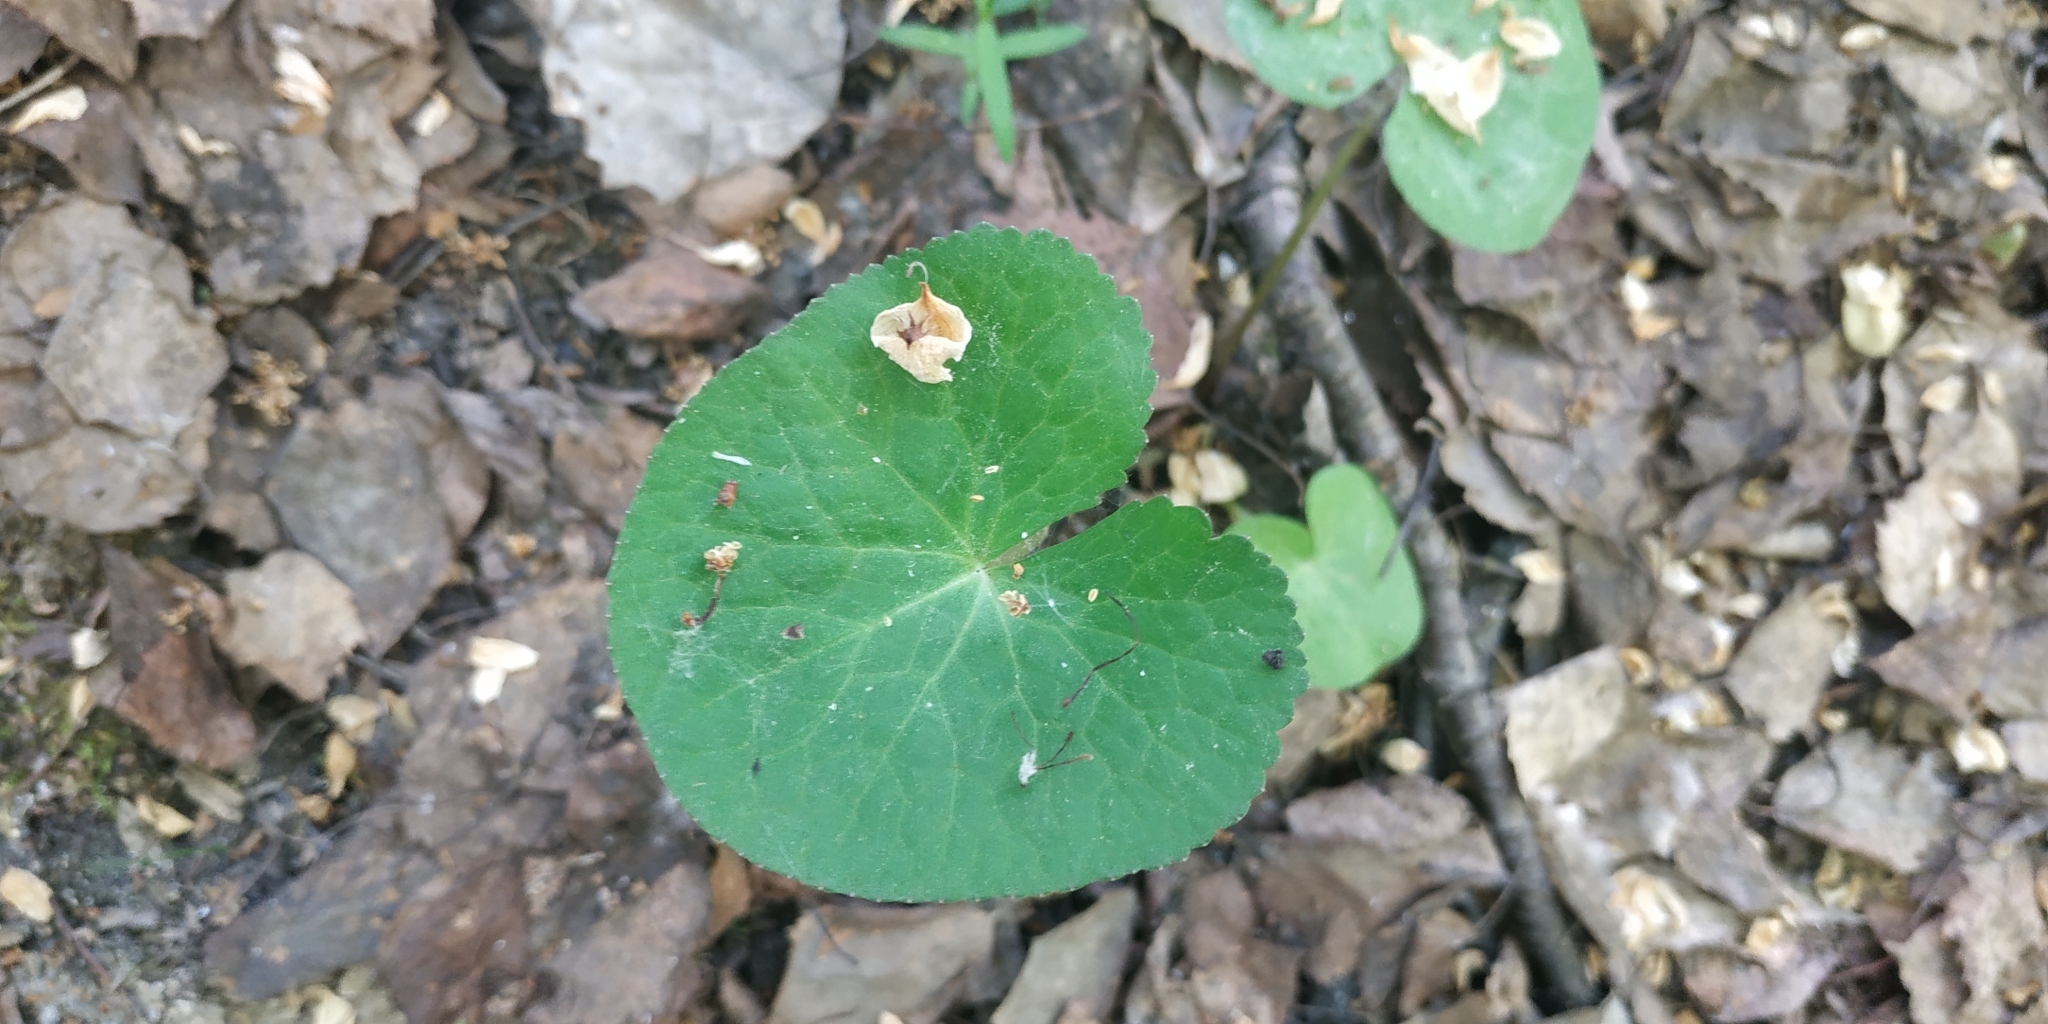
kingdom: Plantae
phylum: Tracheophyta
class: Magnoliopsida
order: Ranunculales
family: Ranunculaceae
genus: Caltha
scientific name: Caltha palustris
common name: Marsh marigold
